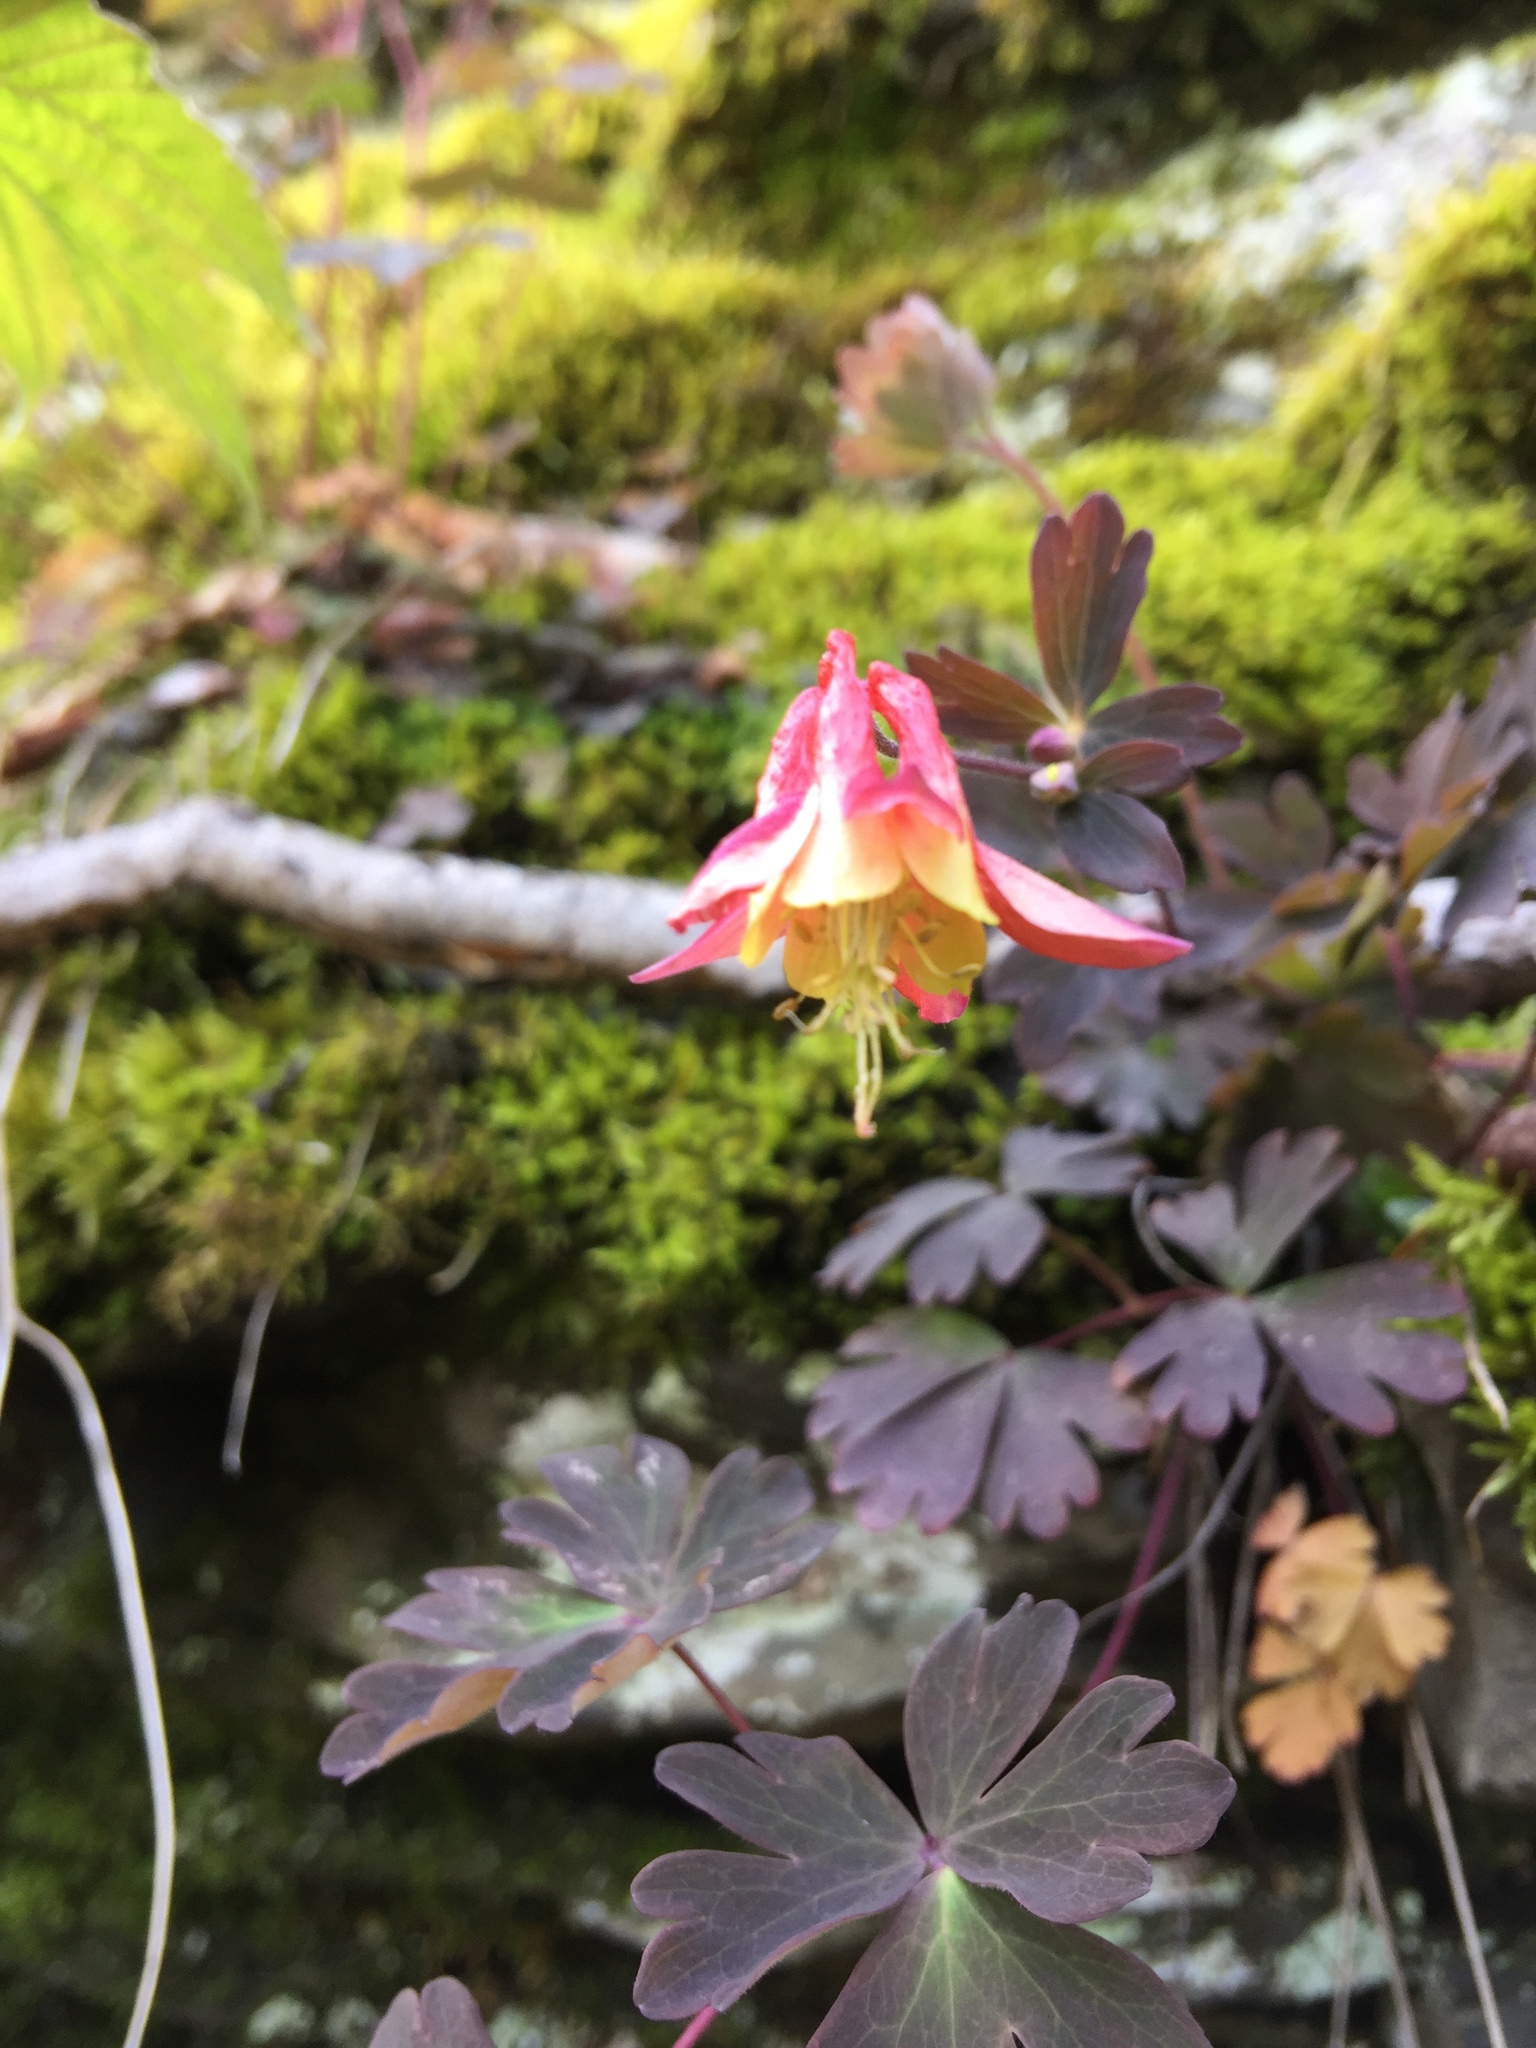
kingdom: Plantae
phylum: Tracheophyta
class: Magnoliopsida
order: Ranunculales
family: Ranunculaceae
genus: Aquilegia
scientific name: Aquilegia canadensis
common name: American columbine
